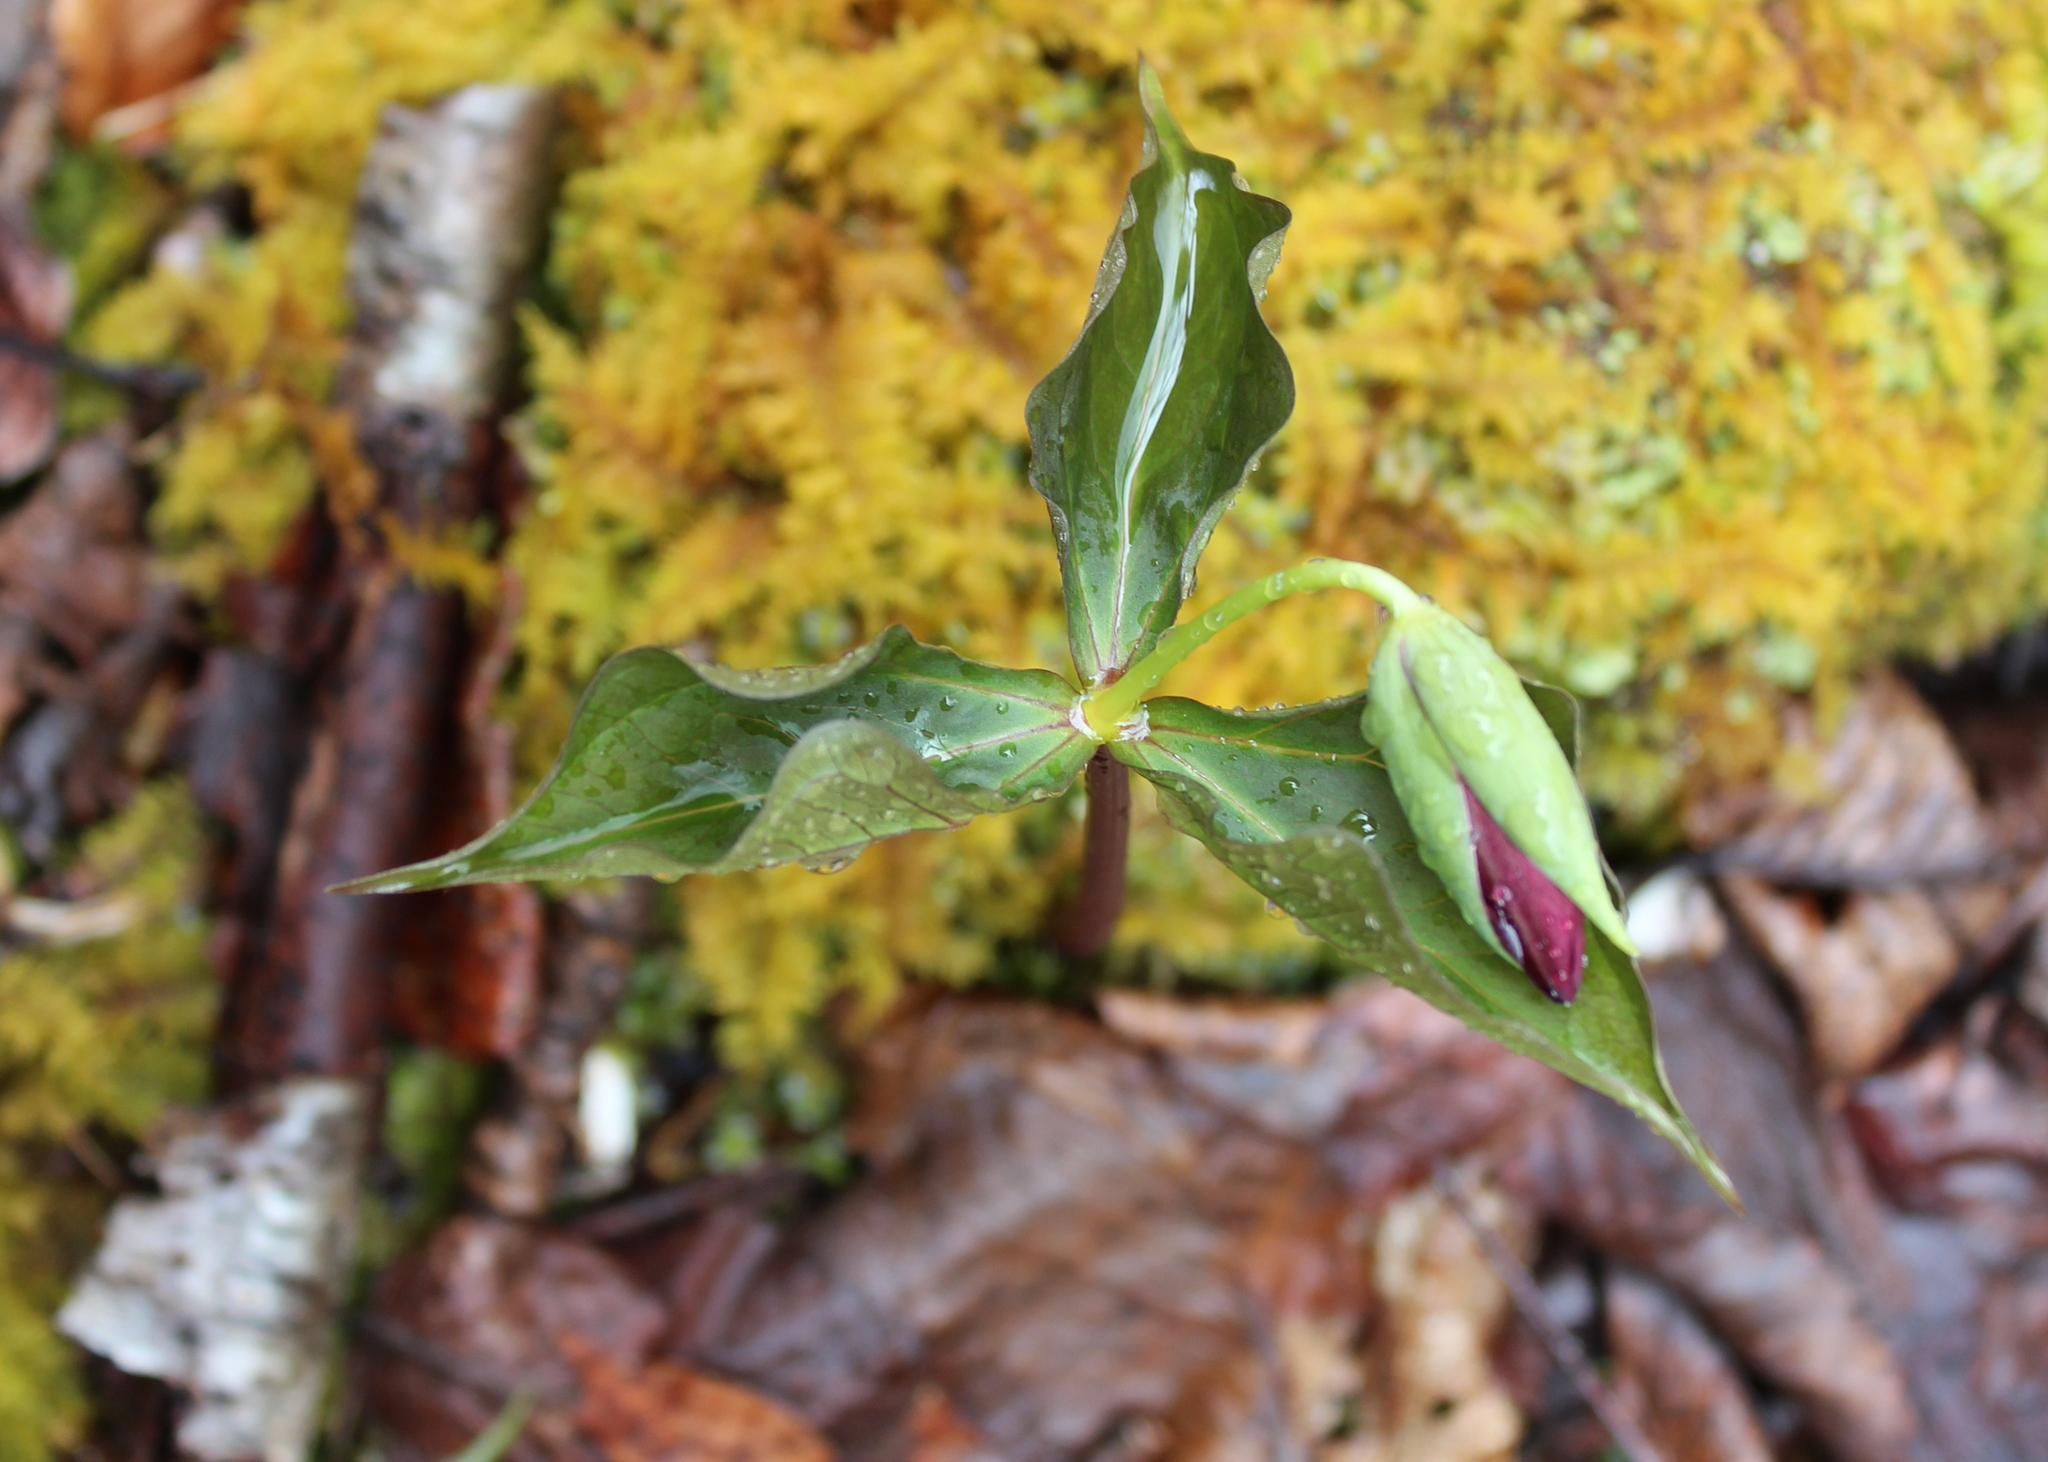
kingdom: Plantae
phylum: Tracheophyta
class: Liliopsida
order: Liliales
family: Melanthiaceae
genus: Trillium
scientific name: Trillium erectum
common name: Purple trillium
